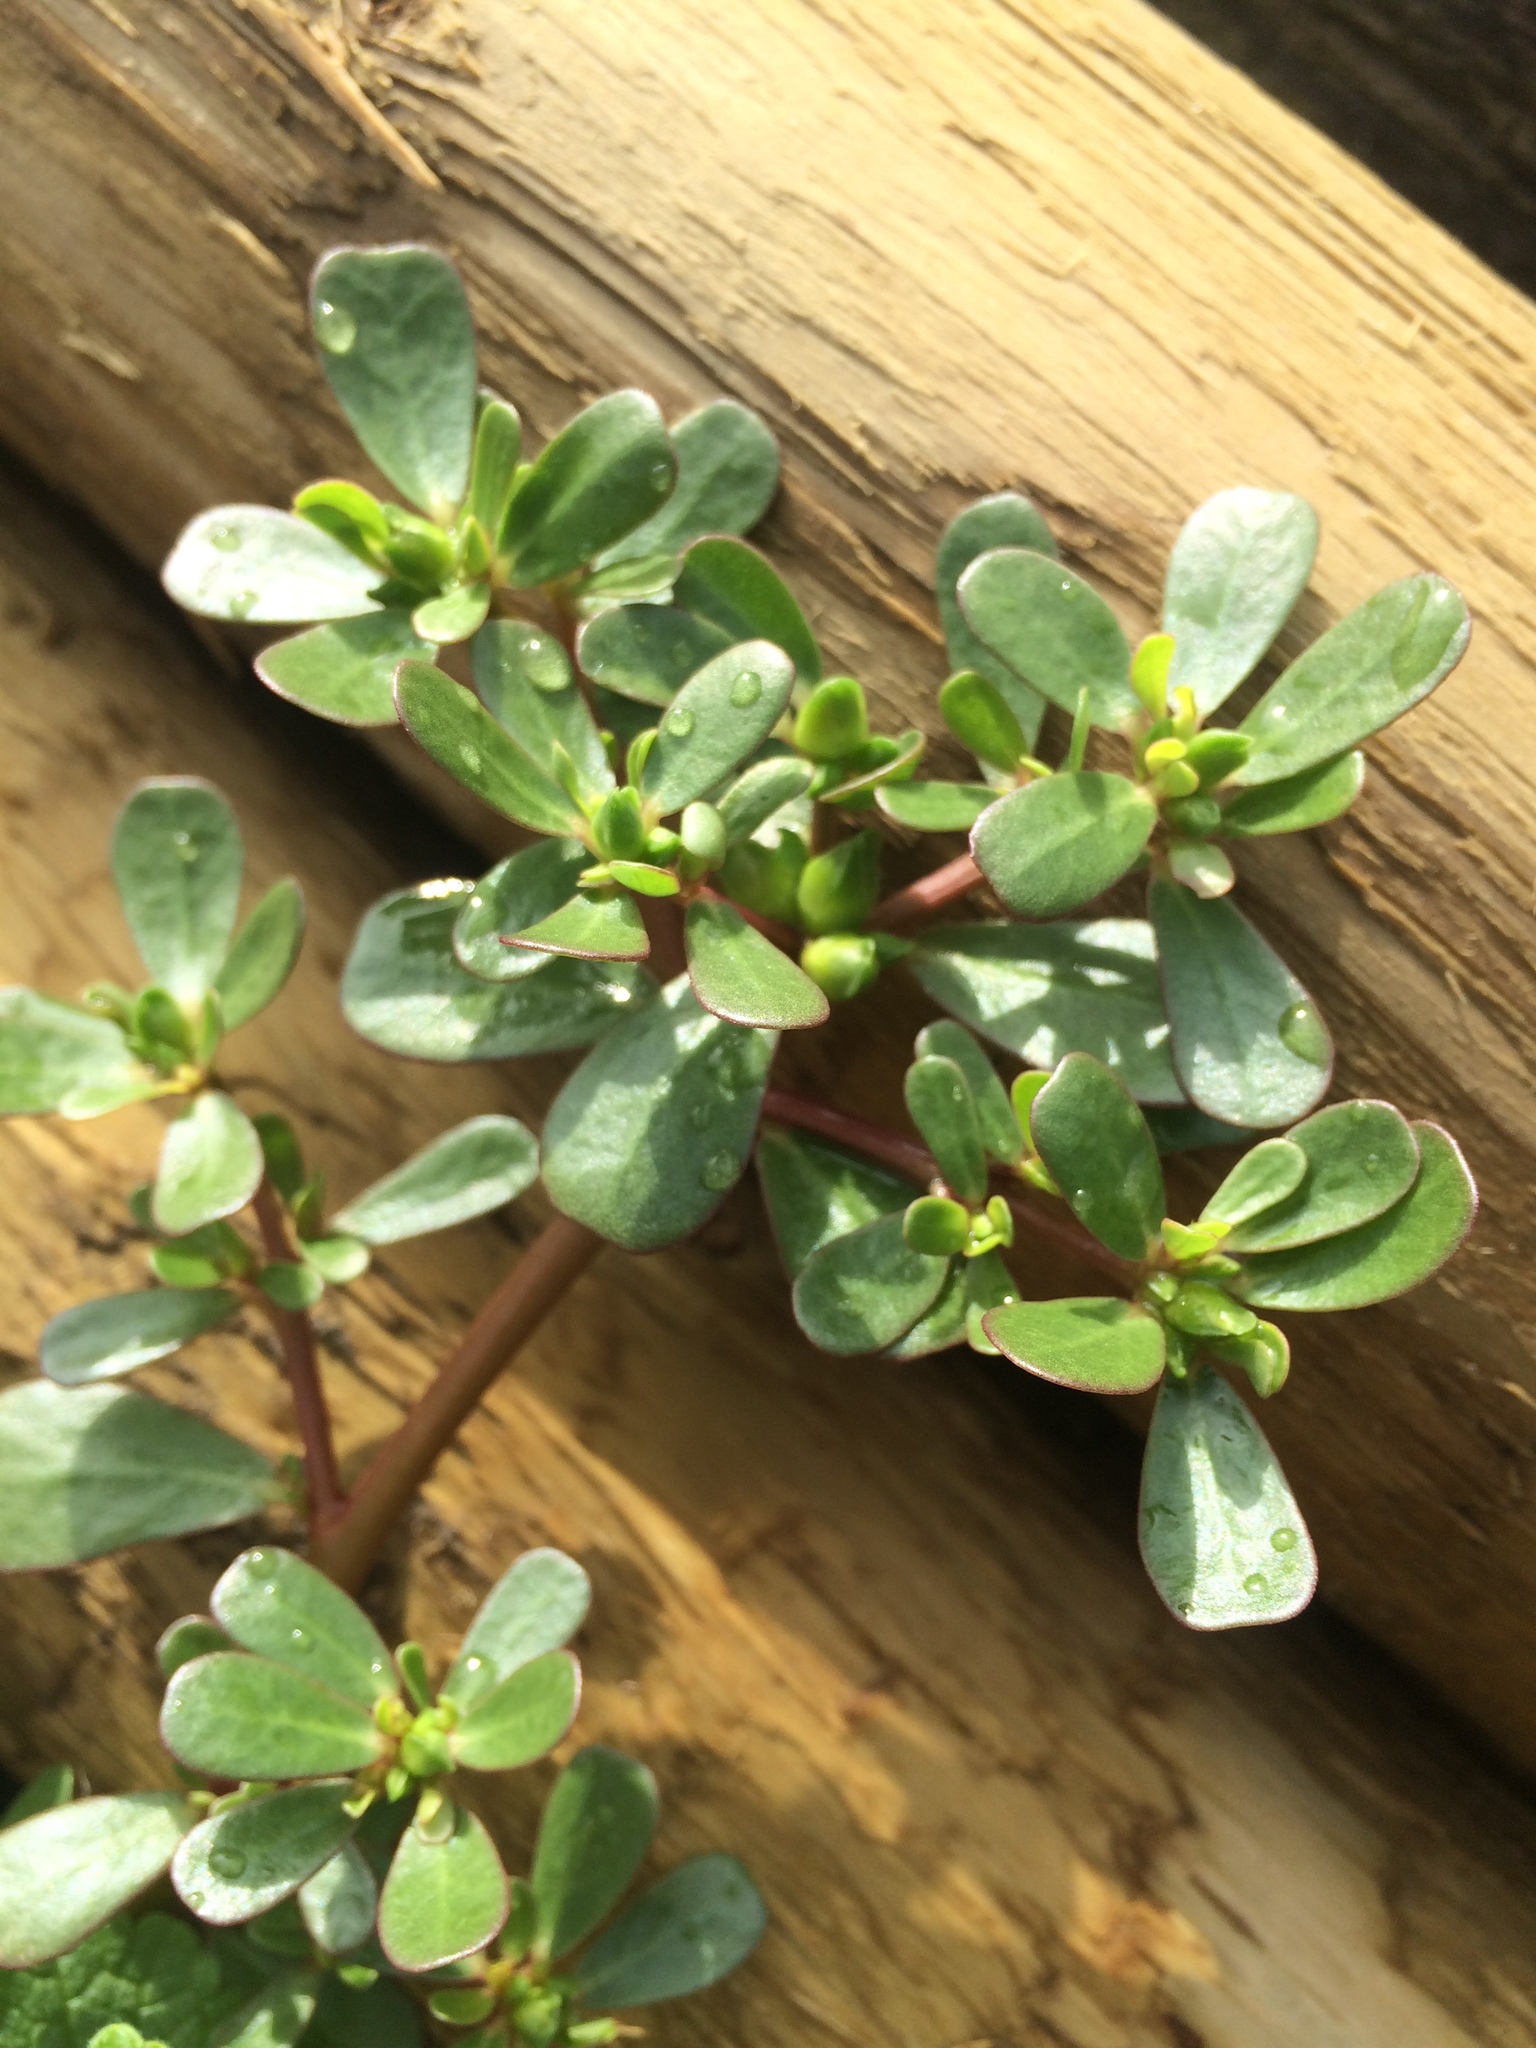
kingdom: Plantae
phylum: Tracheophyta
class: Magnoliopsida
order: Caryophyllales
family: Portulacaceae
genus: Portulaca
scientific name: Portulaca oleracea
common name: Common purslane
